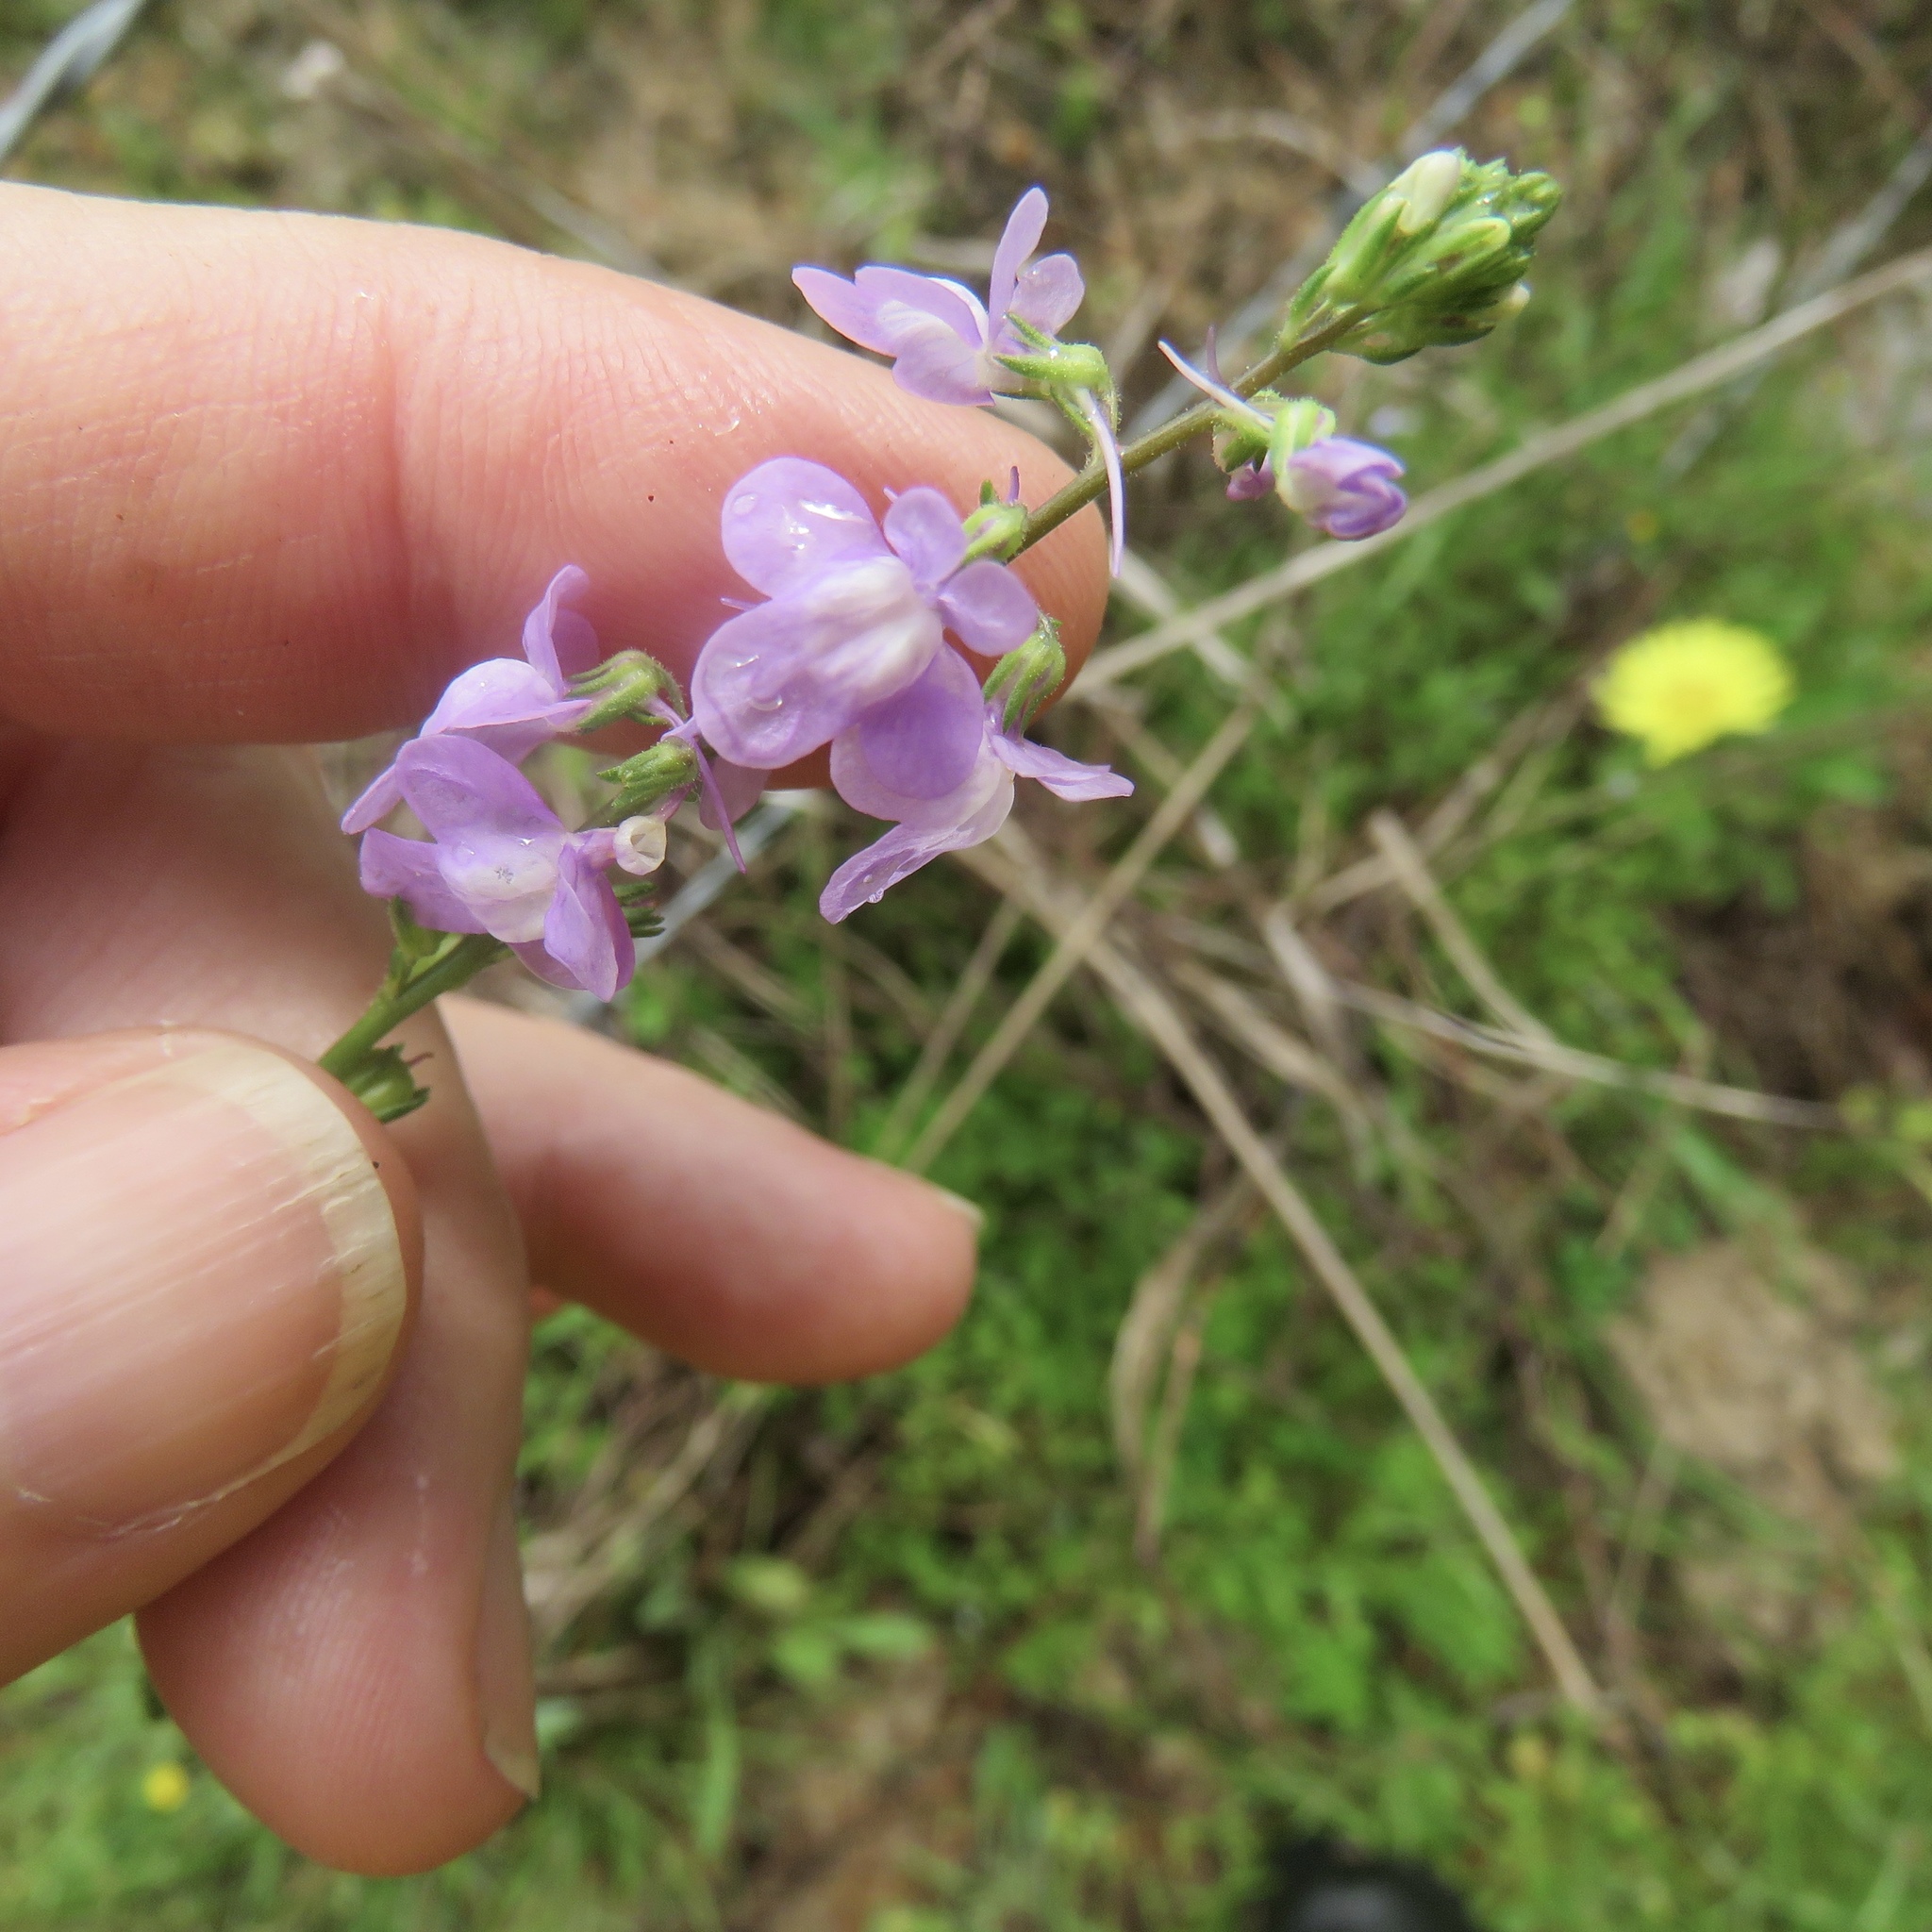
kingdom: Plantae
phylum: Tracheophyta
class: Magnoliopsida
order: Lamiales
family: Plantaginaceae
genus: Nuttallanthus
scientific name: Nuttallanthus texanus
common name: Texas toadflax
